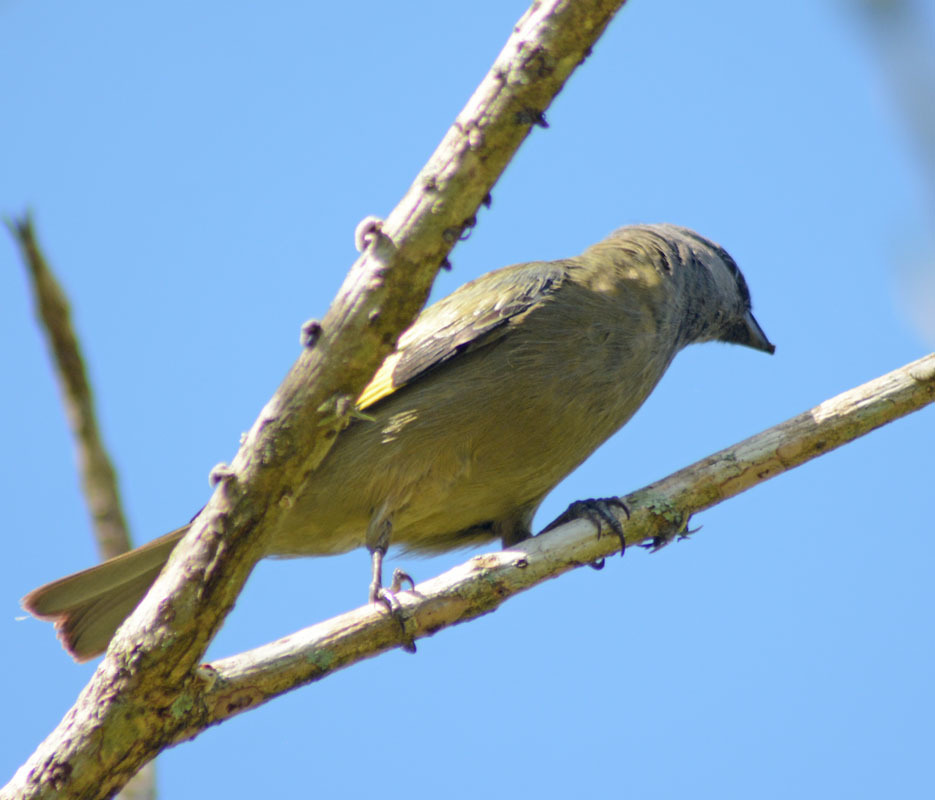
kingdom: Animalia
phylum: Chordata
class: Aves
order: Passeriformes
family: Thraupidae
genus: Thraupis
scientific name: Thraupis abbas
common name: Yellow-winged tanager
